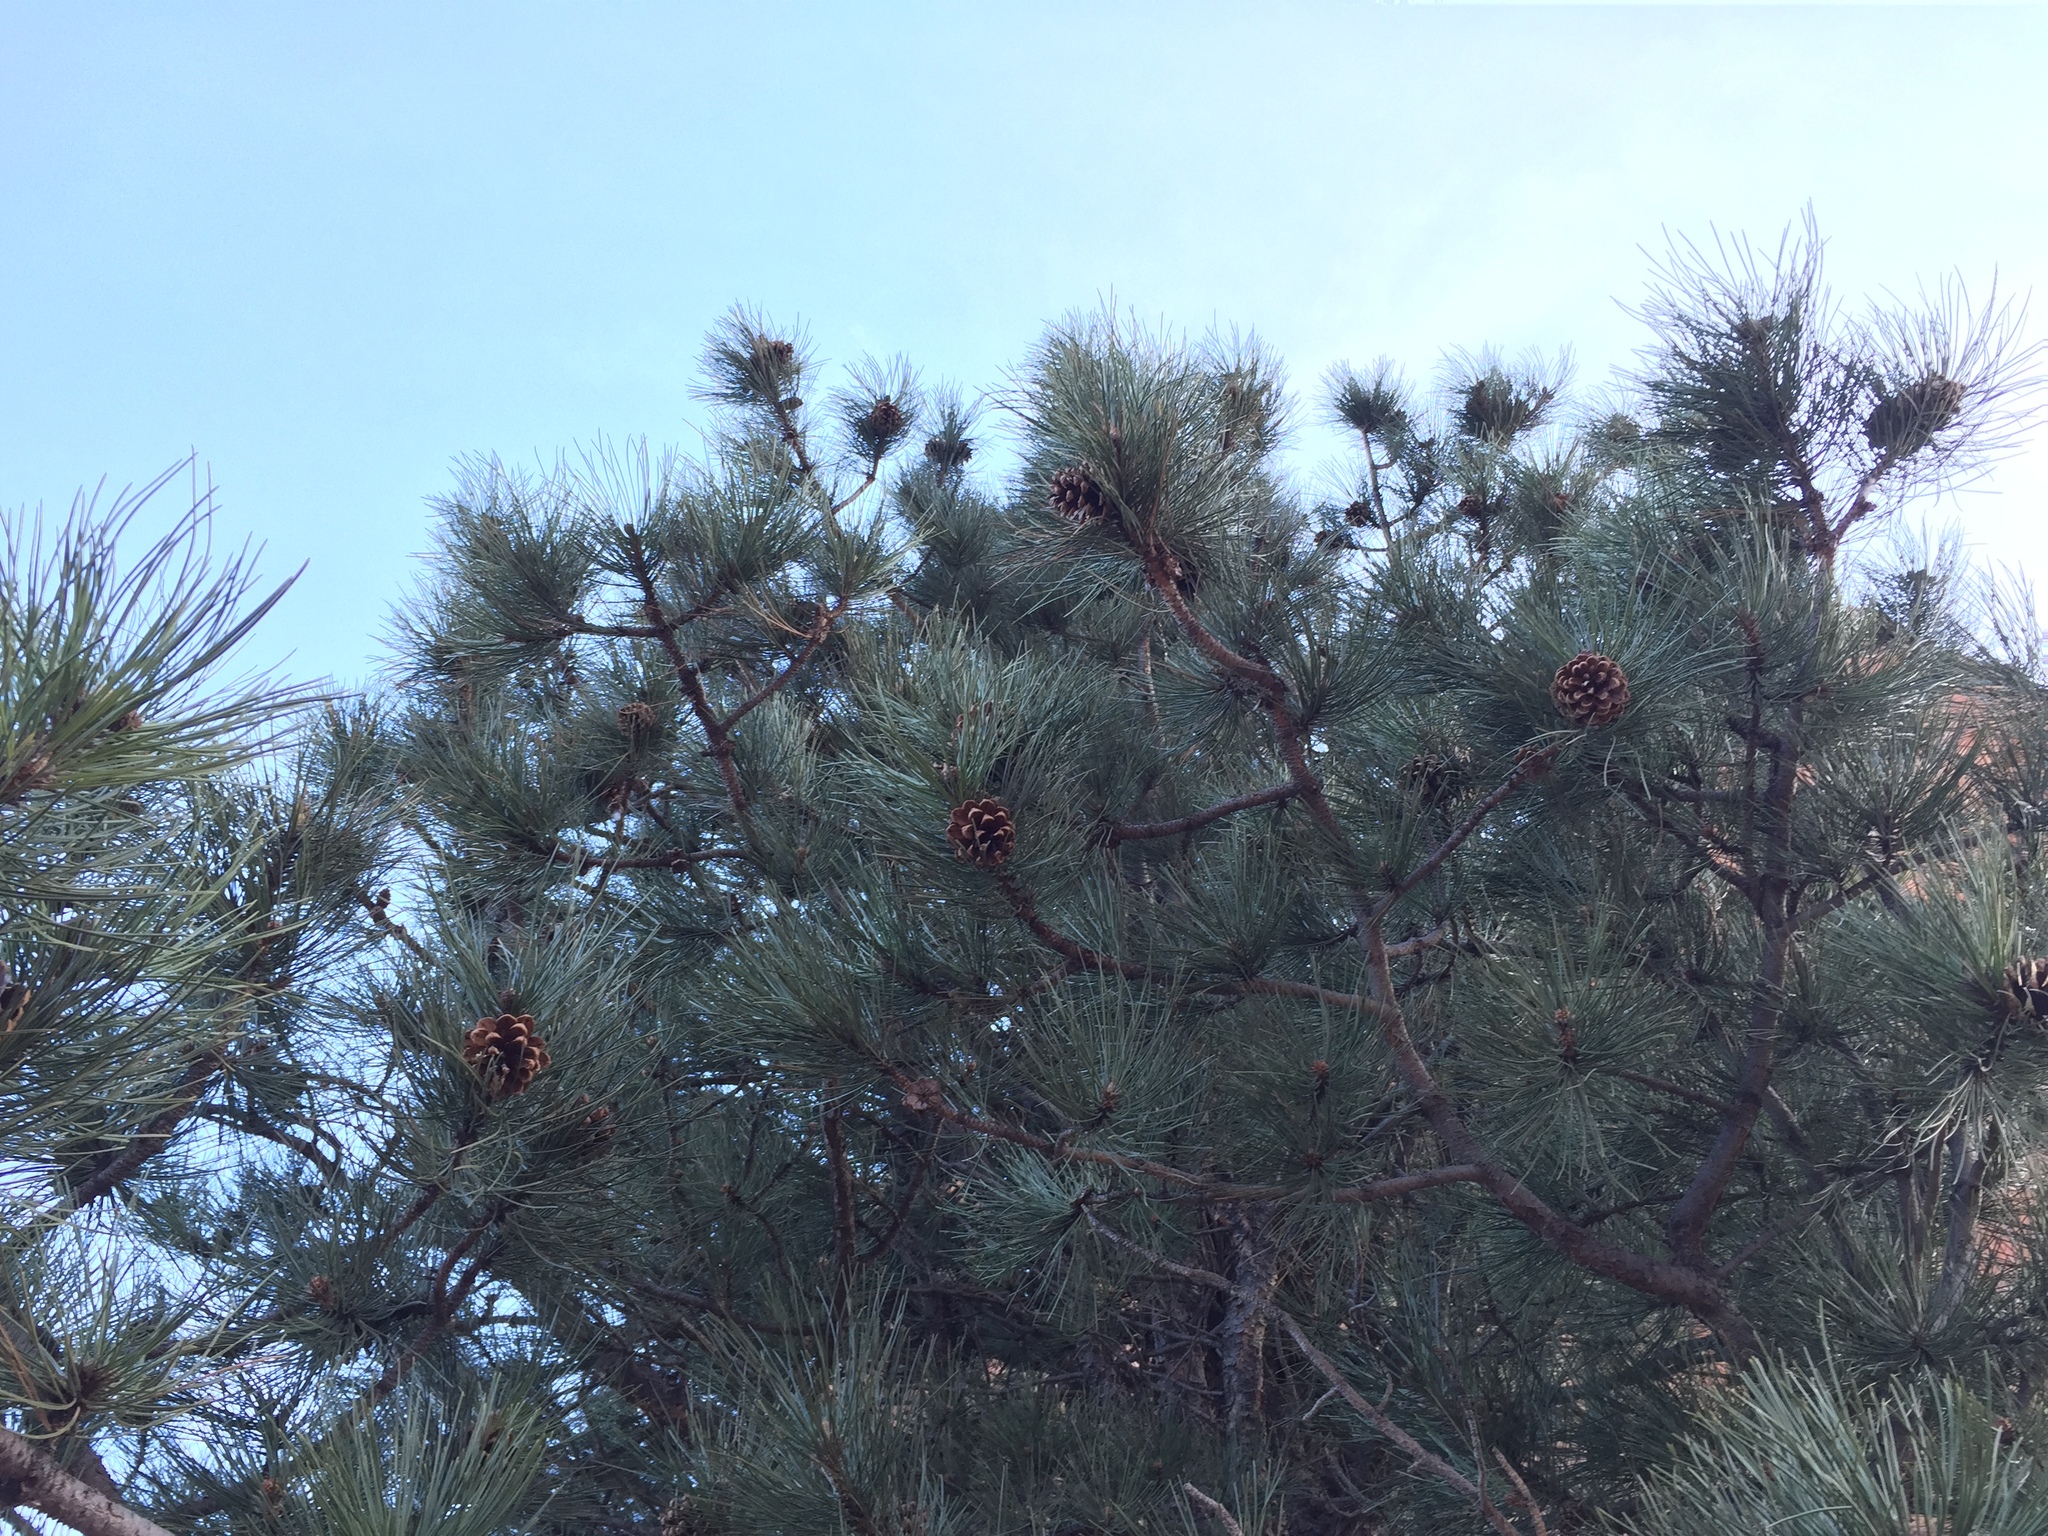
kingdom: Plantae
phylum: Tracheophyta
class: Pinopsida
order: Pinales
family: Pinaceae
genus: Pinus
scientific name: Pinus ponderosa
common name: Western yellow-pine
